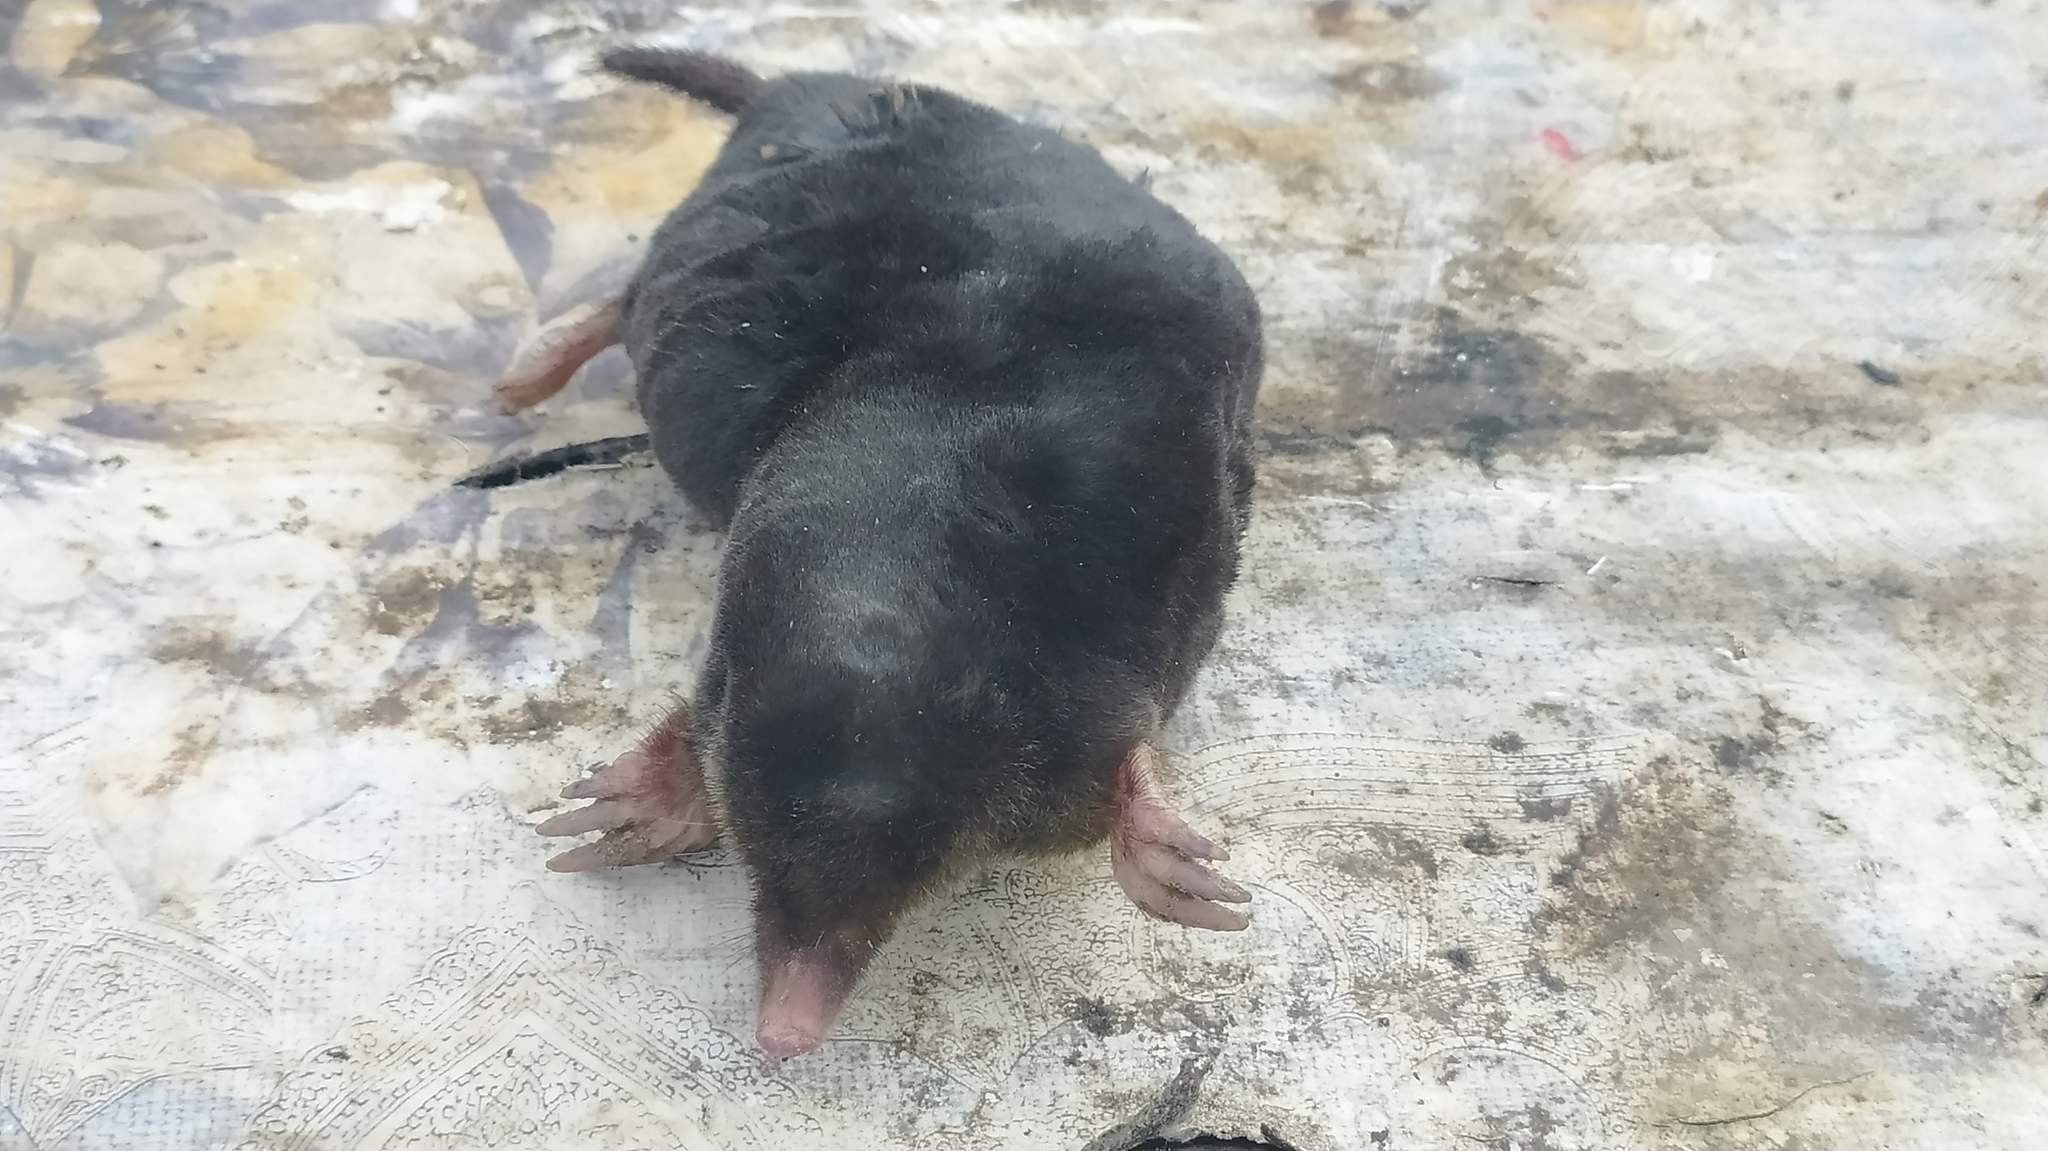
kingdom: Animalia
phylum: Chordata
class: Mammalia
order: Soricomorpha
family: Talpidae
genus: Talpa
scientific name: Talpa europaea
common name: European mole
